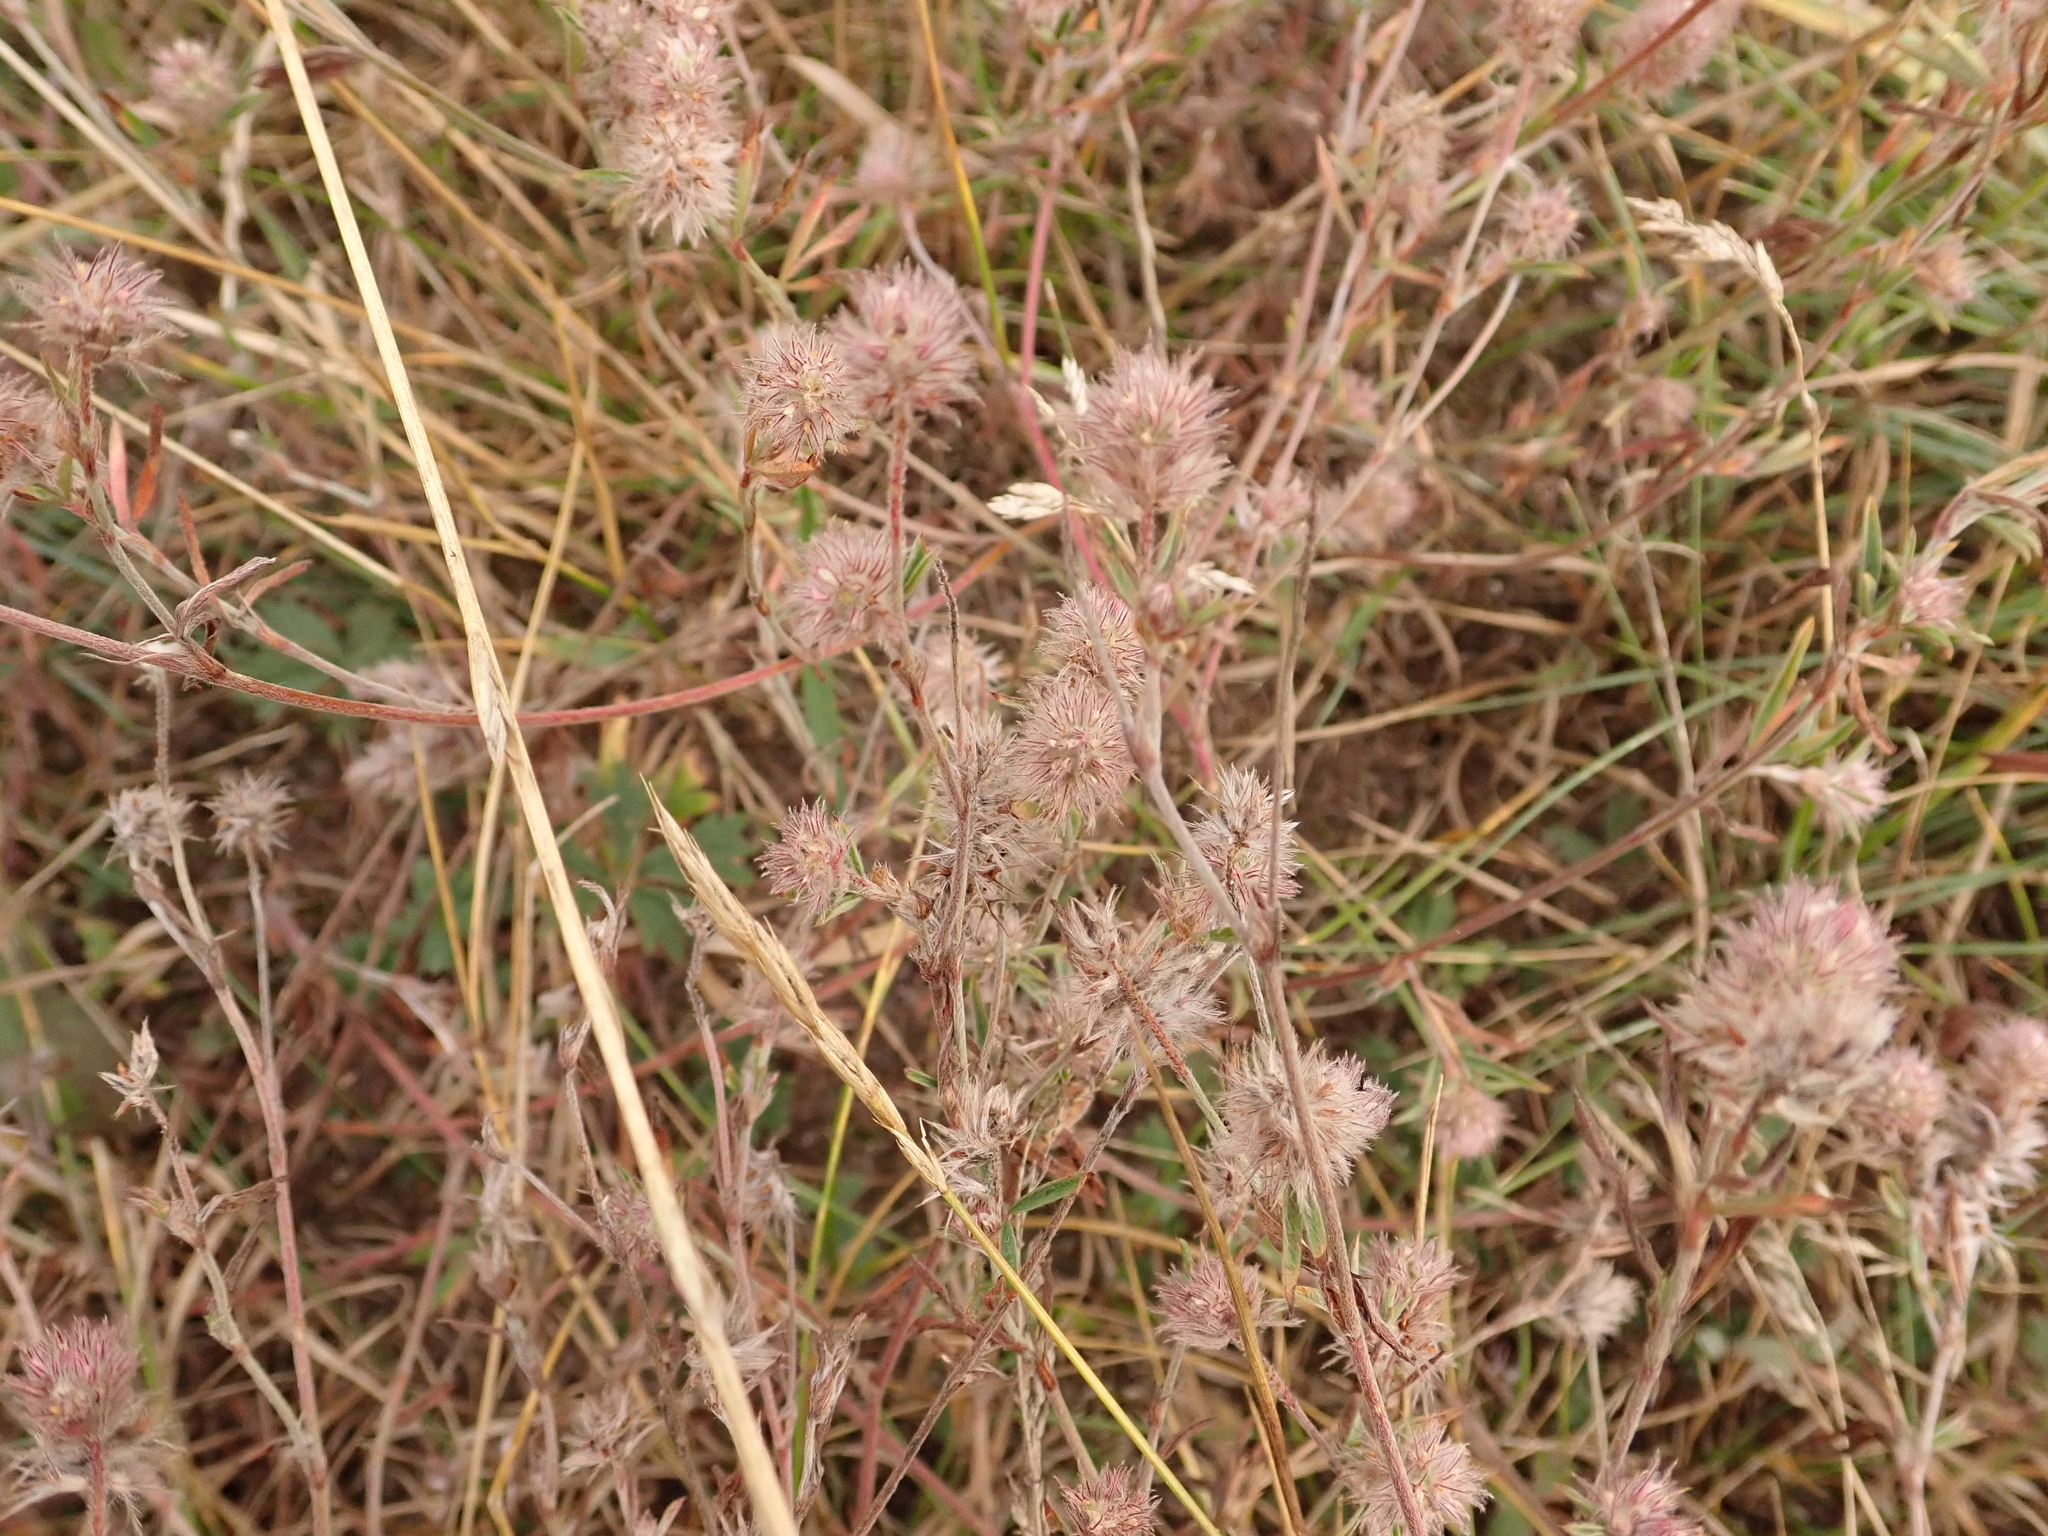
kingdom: Plantae
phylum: Tracheophyta
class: Magnoliopsida
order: Fabales
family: Fabaceae
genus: Trifolium
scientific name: Trifolium arvense
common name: Hare's-foot clover
